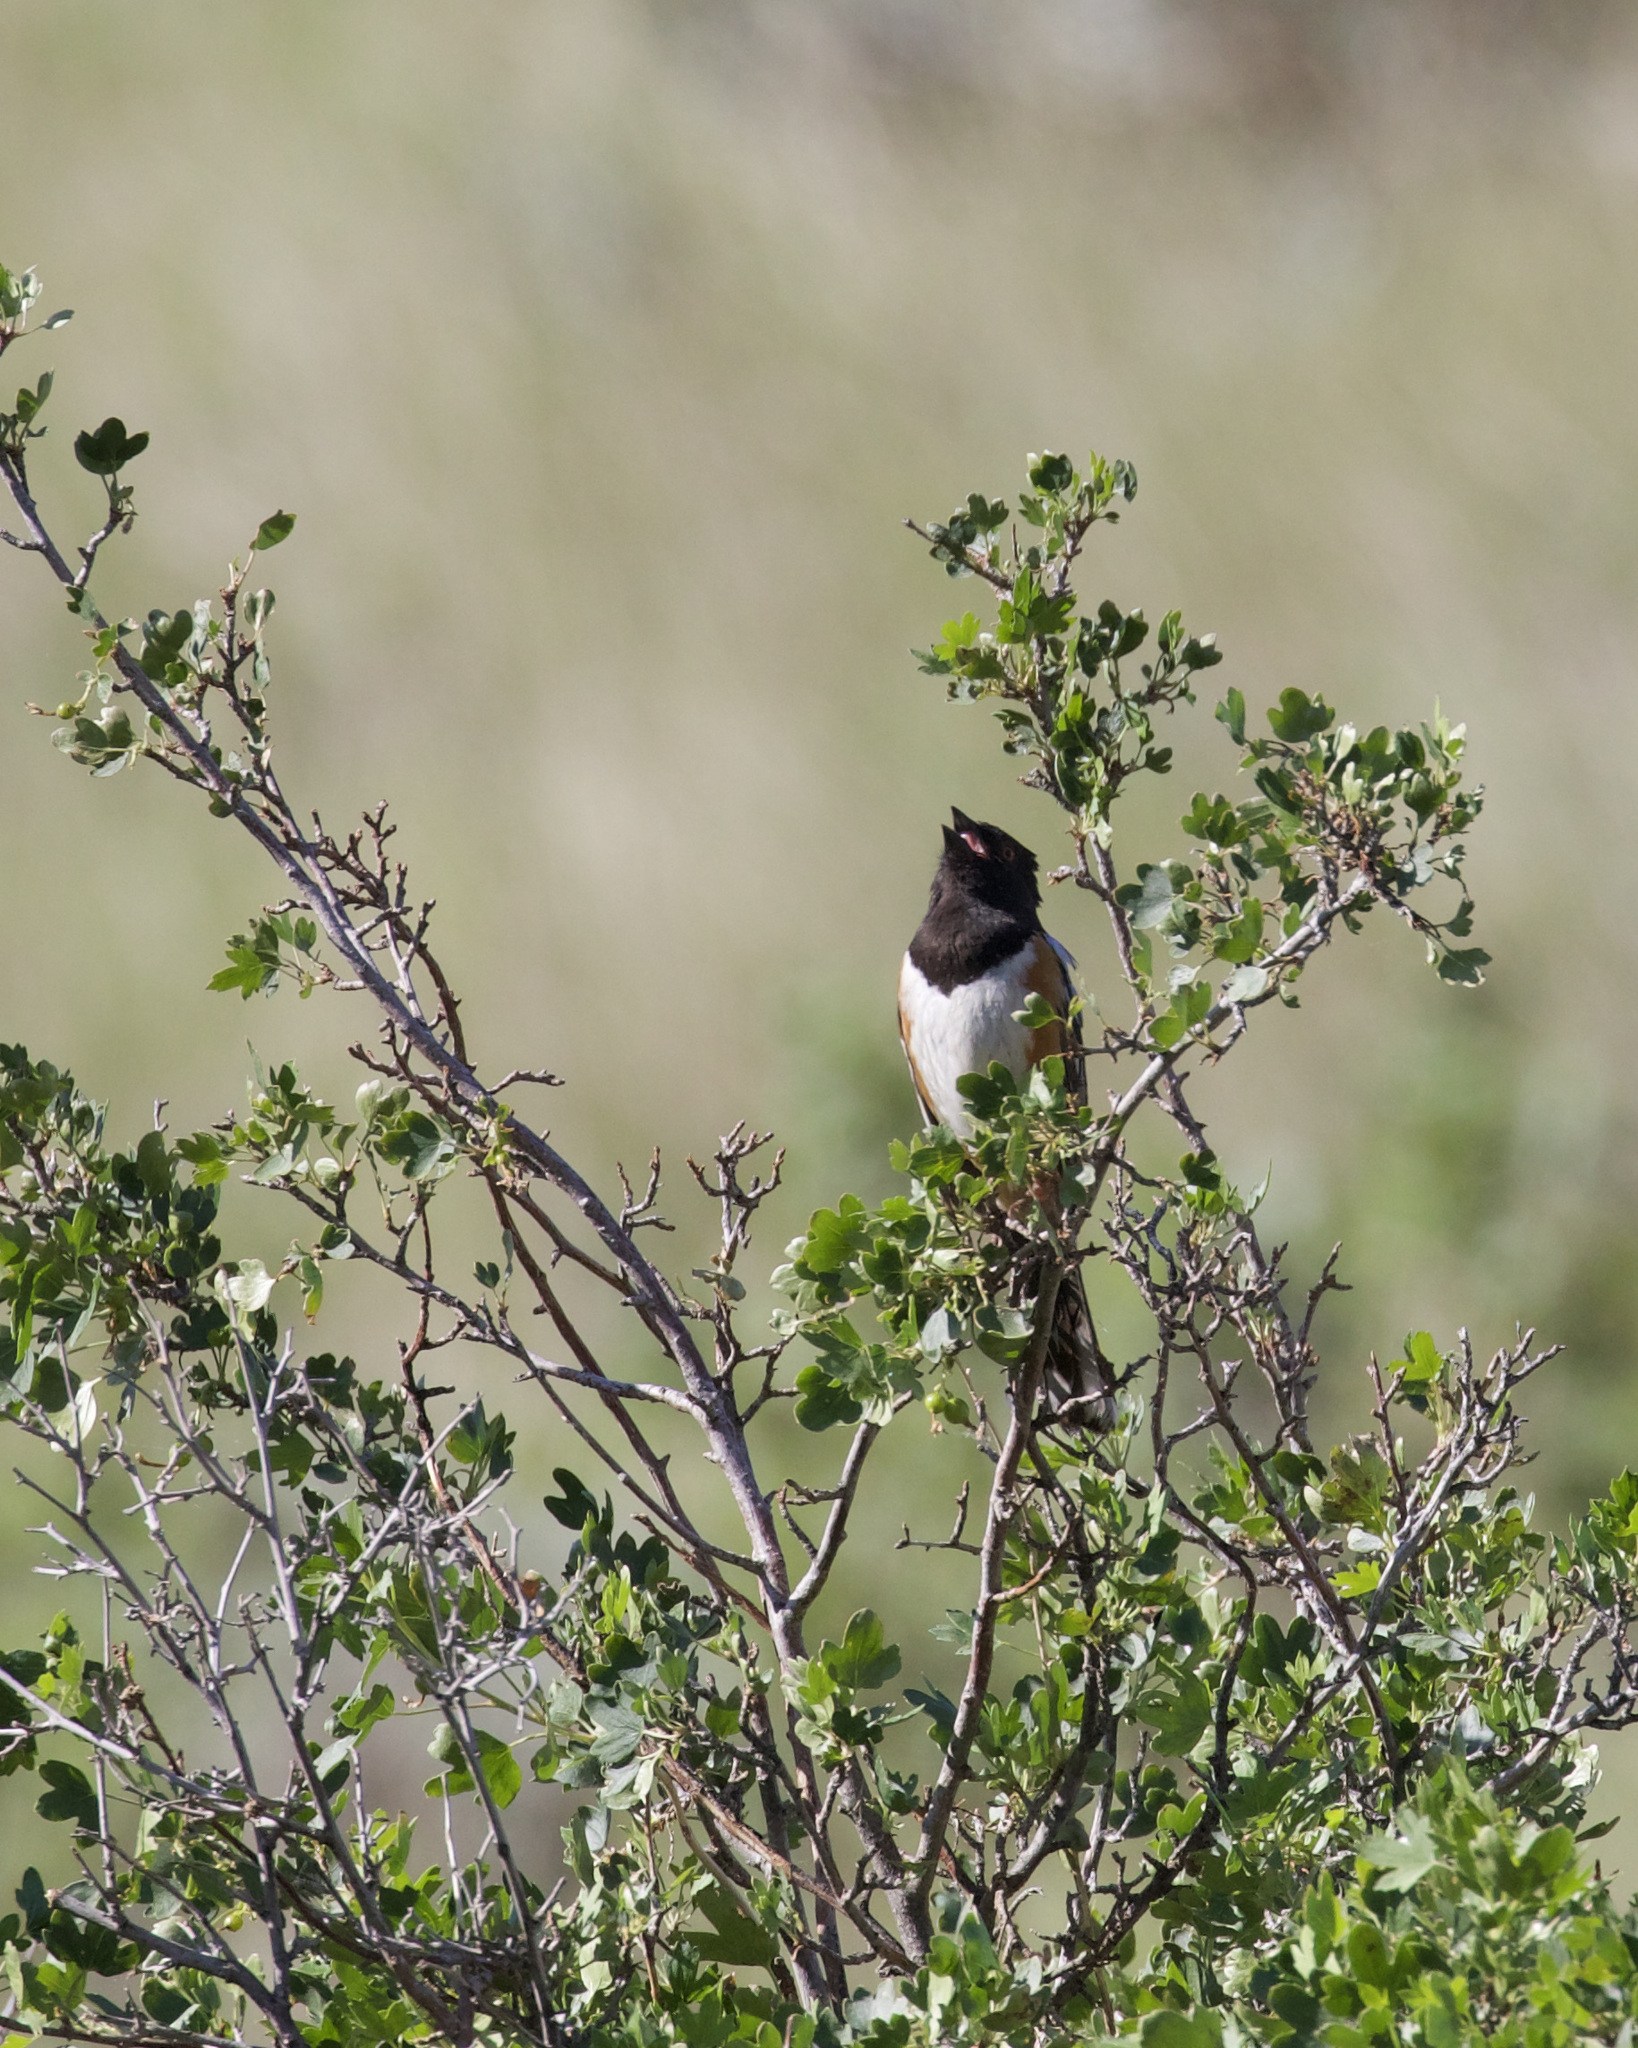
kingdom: Animalia
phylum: Chordata
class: Aves
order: Passeriformes
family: Passerellidae
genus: Pipilo
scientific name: Pipilo maculatus
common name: Spotted towhee
